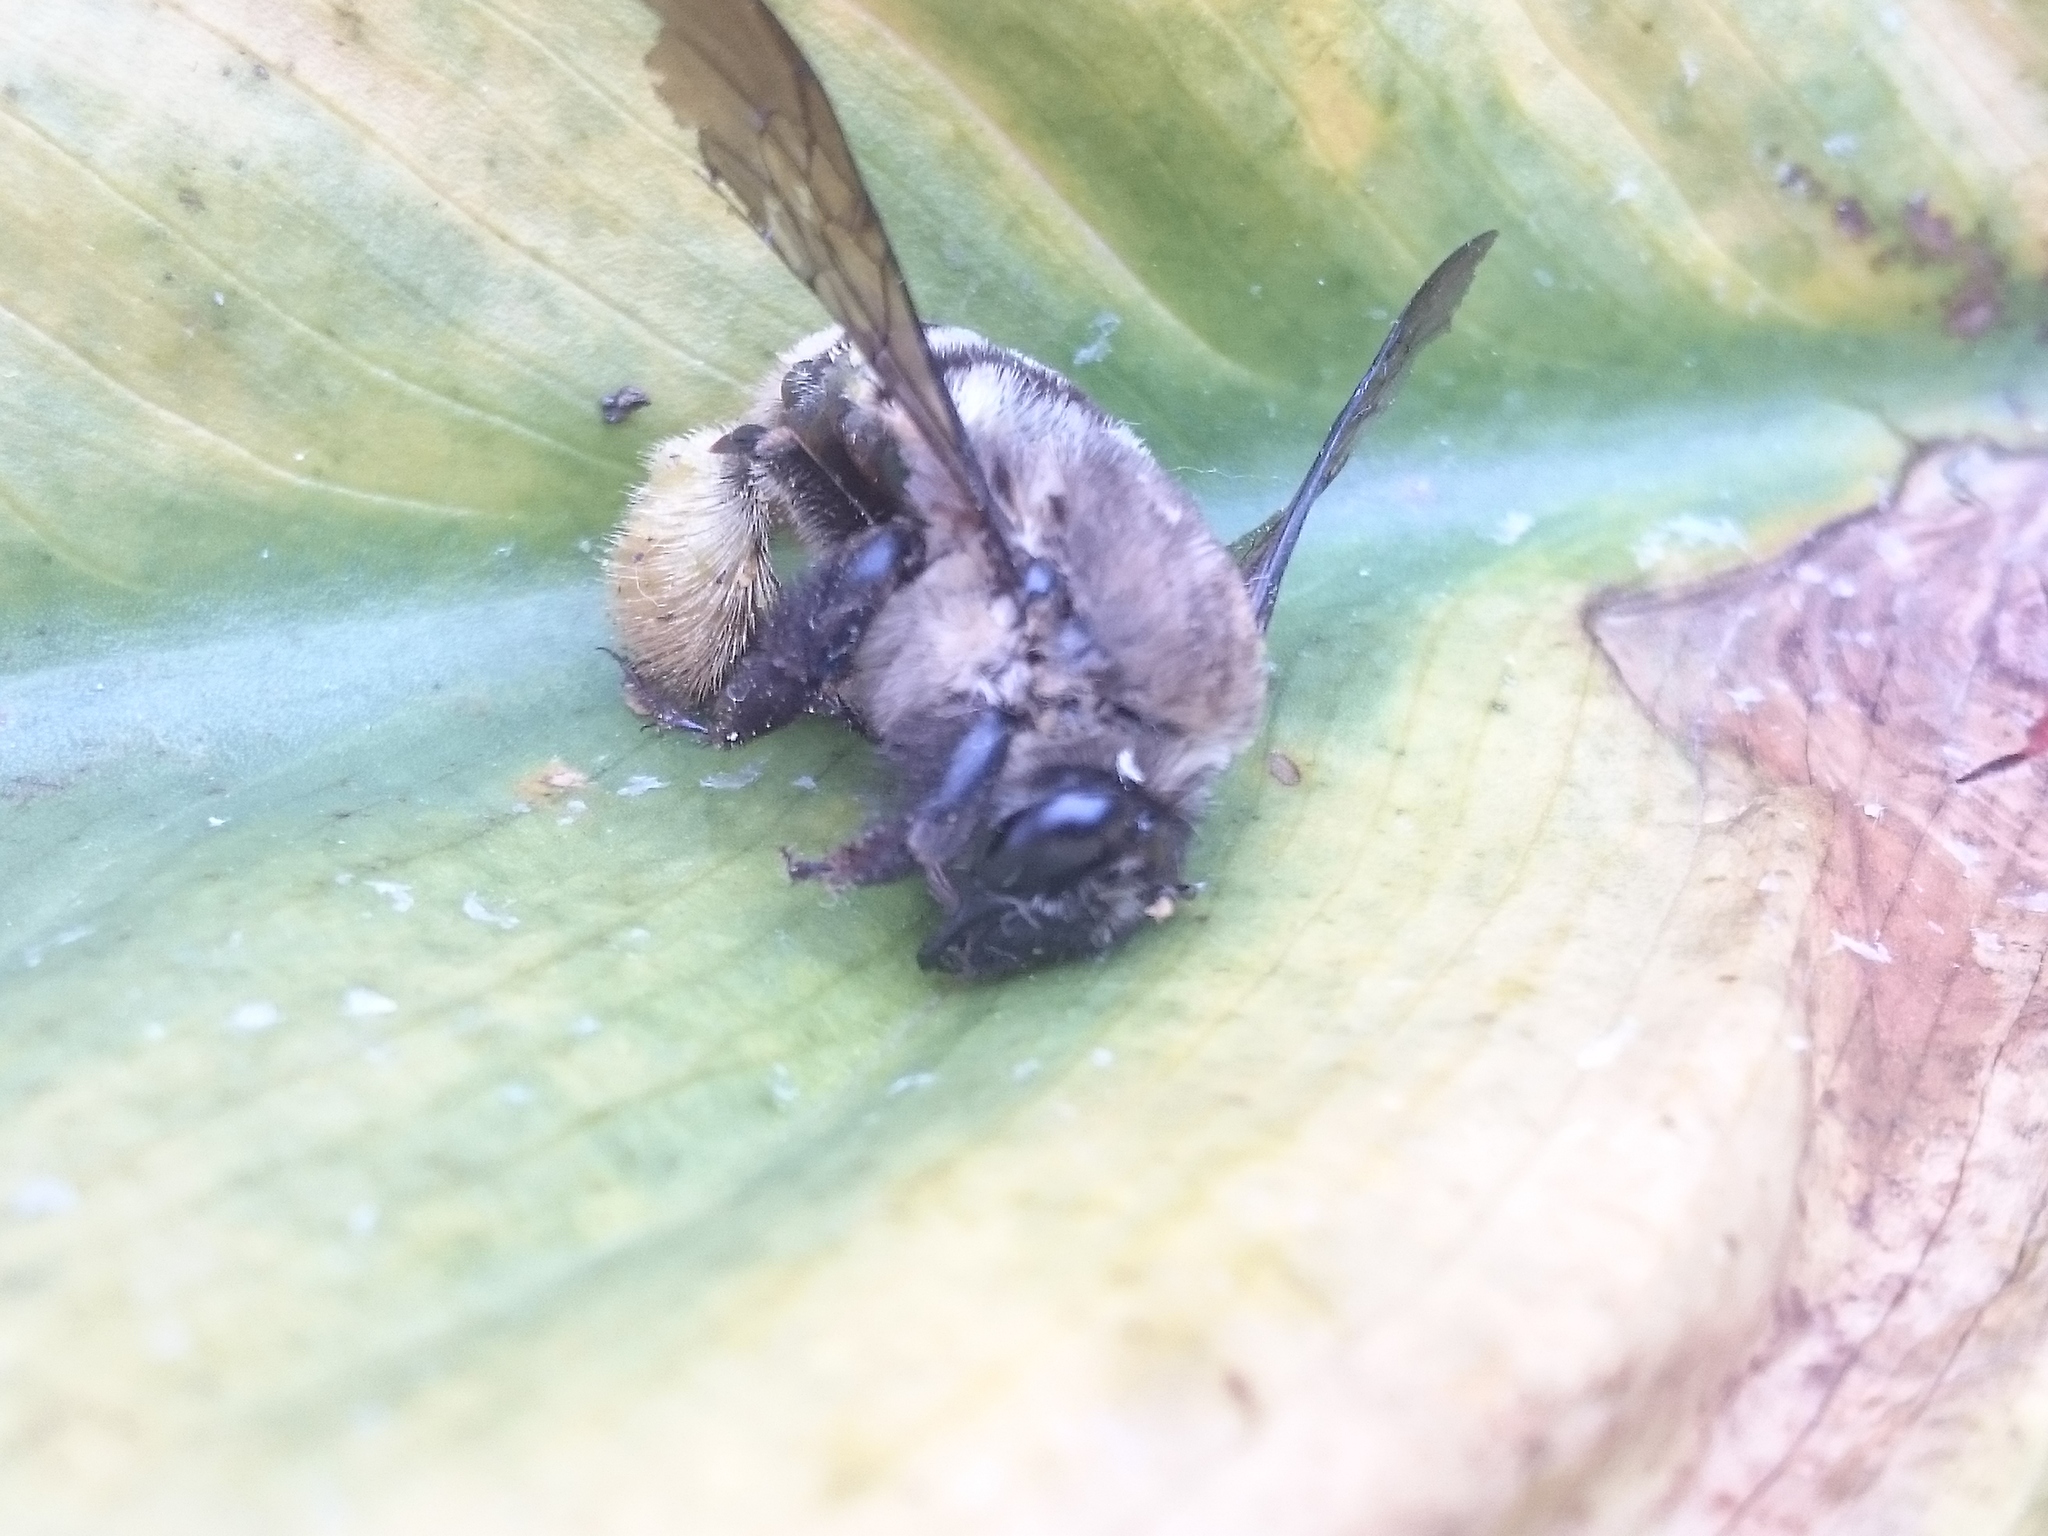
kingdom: Animalia
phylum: Arthropoda
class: Insecta
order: Hymenoptera
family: Apidae
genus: Centris
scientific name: Centris festiva
